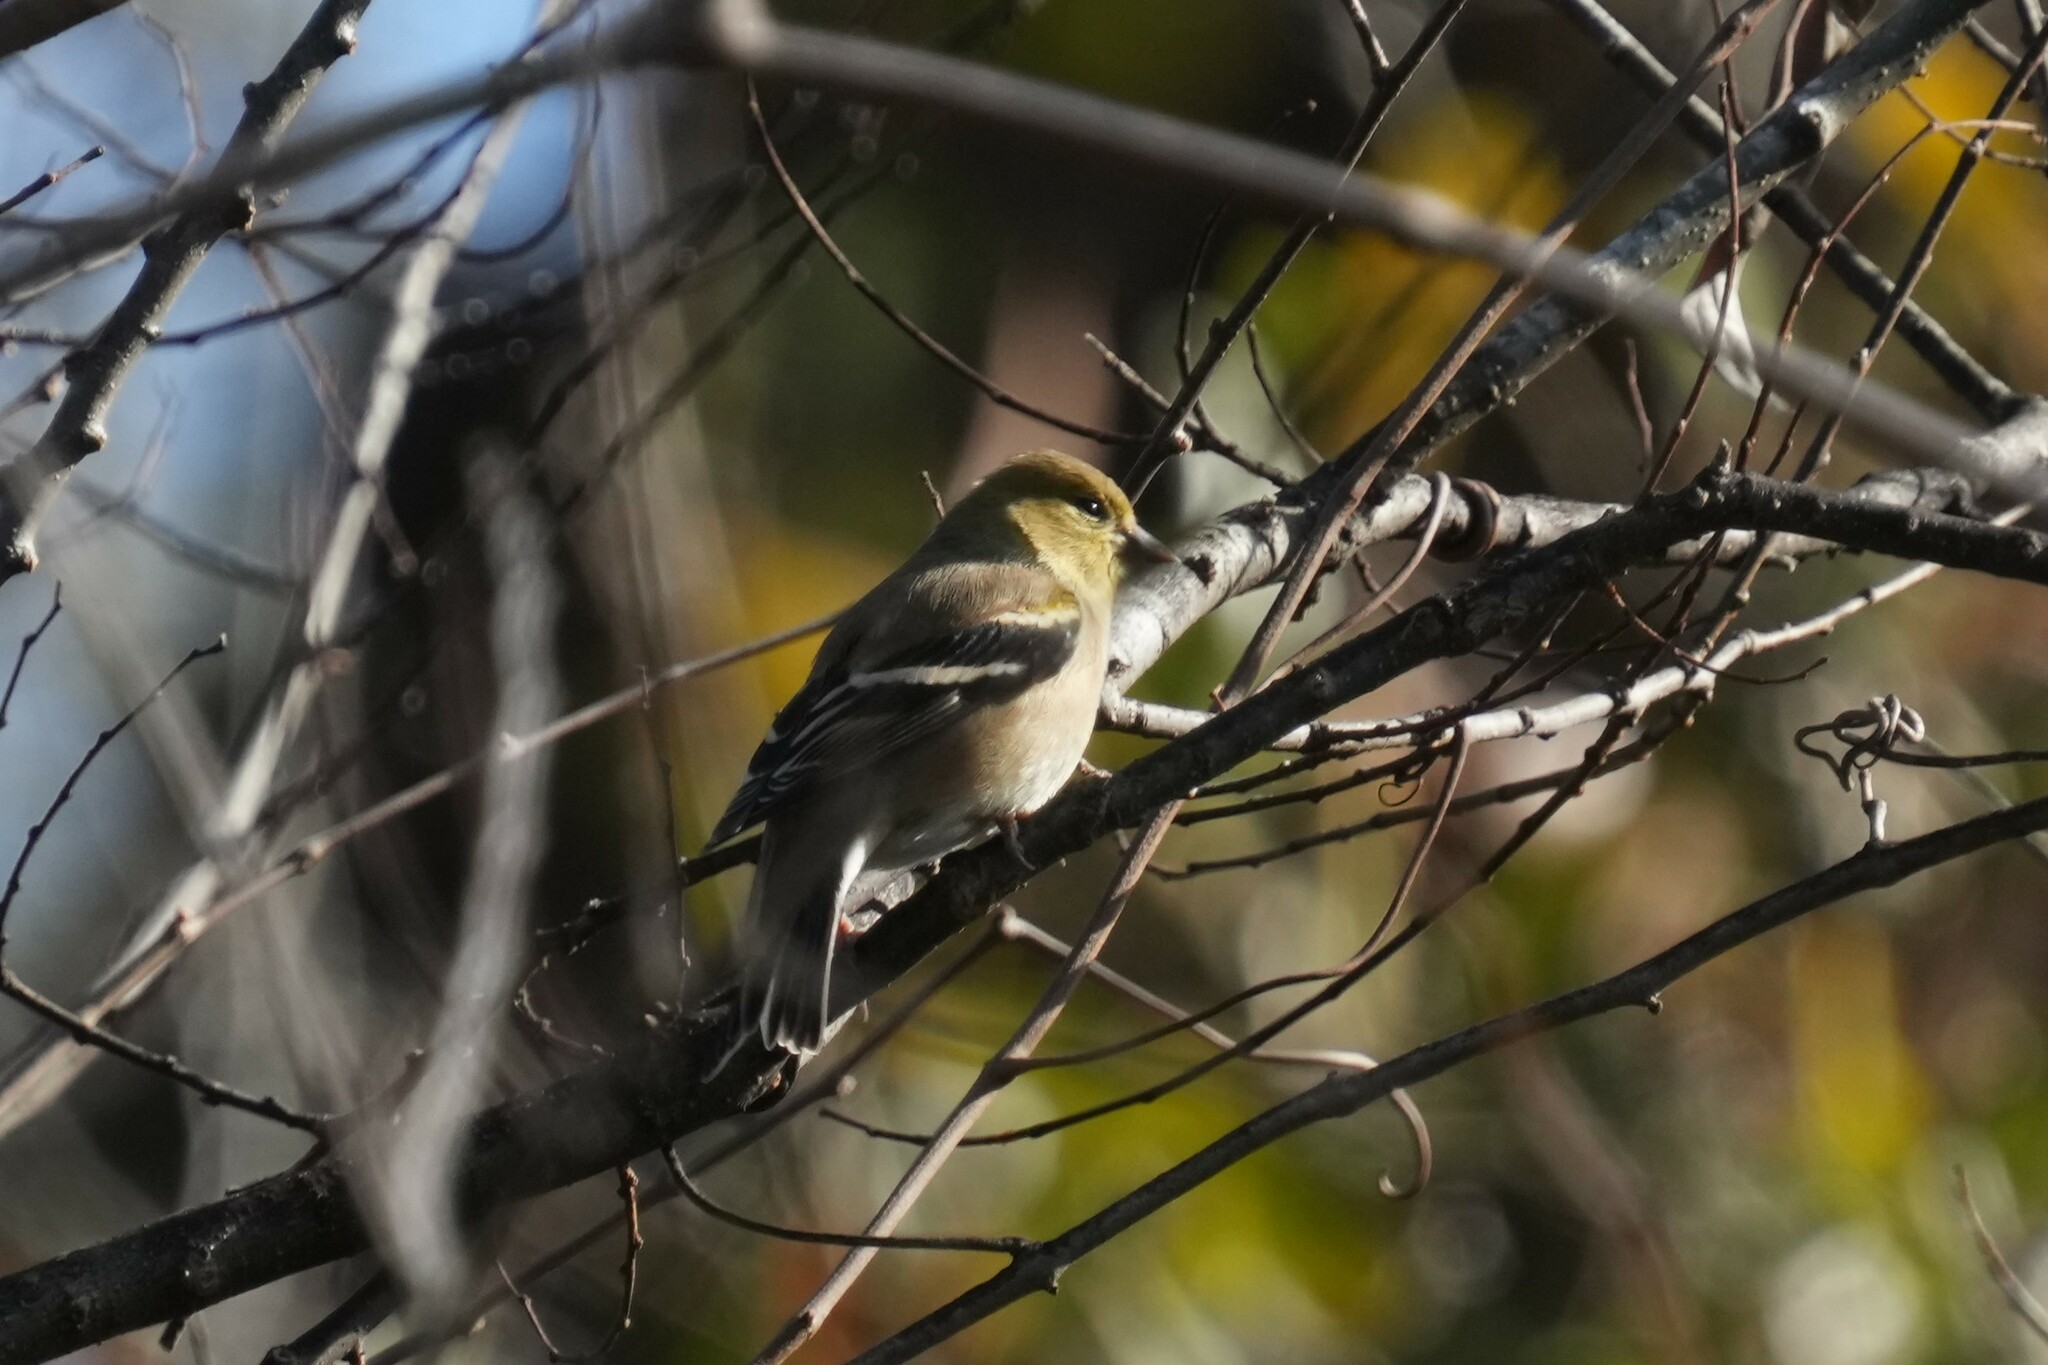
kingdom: Animalia
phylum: Chordata
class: Aves
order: Passeriformes
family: Fringillidae
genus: Spinus
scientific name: Spinus tristis
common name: American goldfinch
